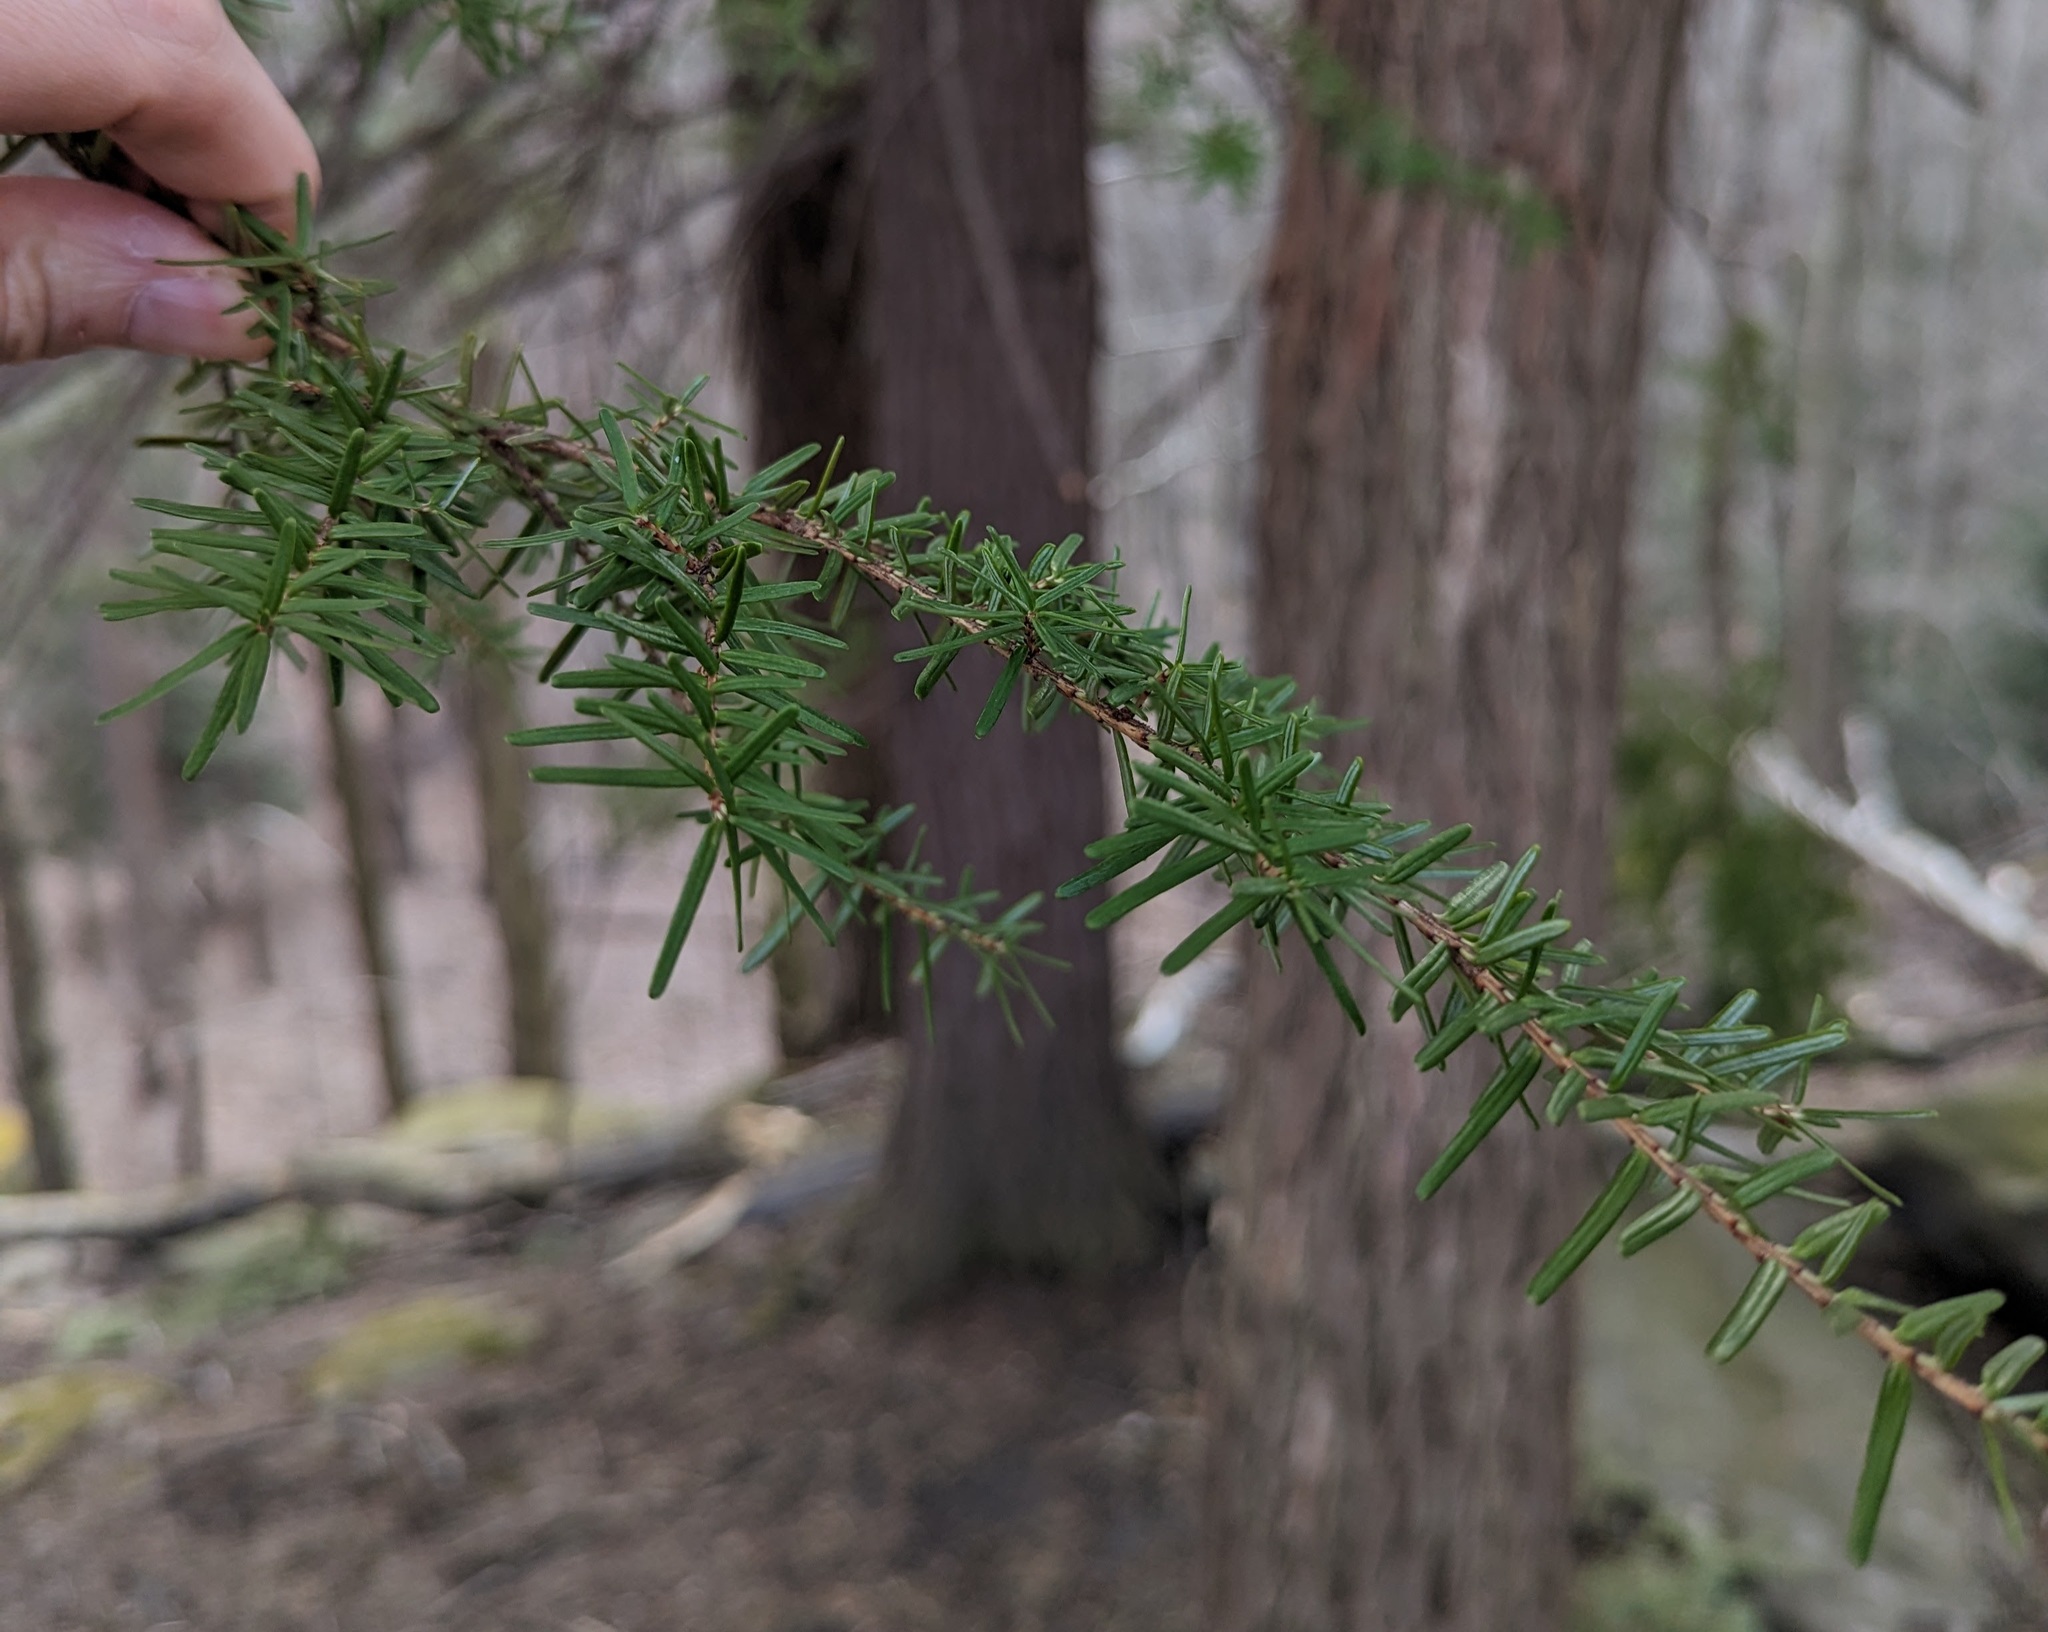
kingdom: Plantae
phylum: Tracheophyta
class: Pinopsida
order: Pinales
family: Pinaceae
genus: Tsuga
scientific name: Tsuga caroliniana
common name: Carolina hemlock
